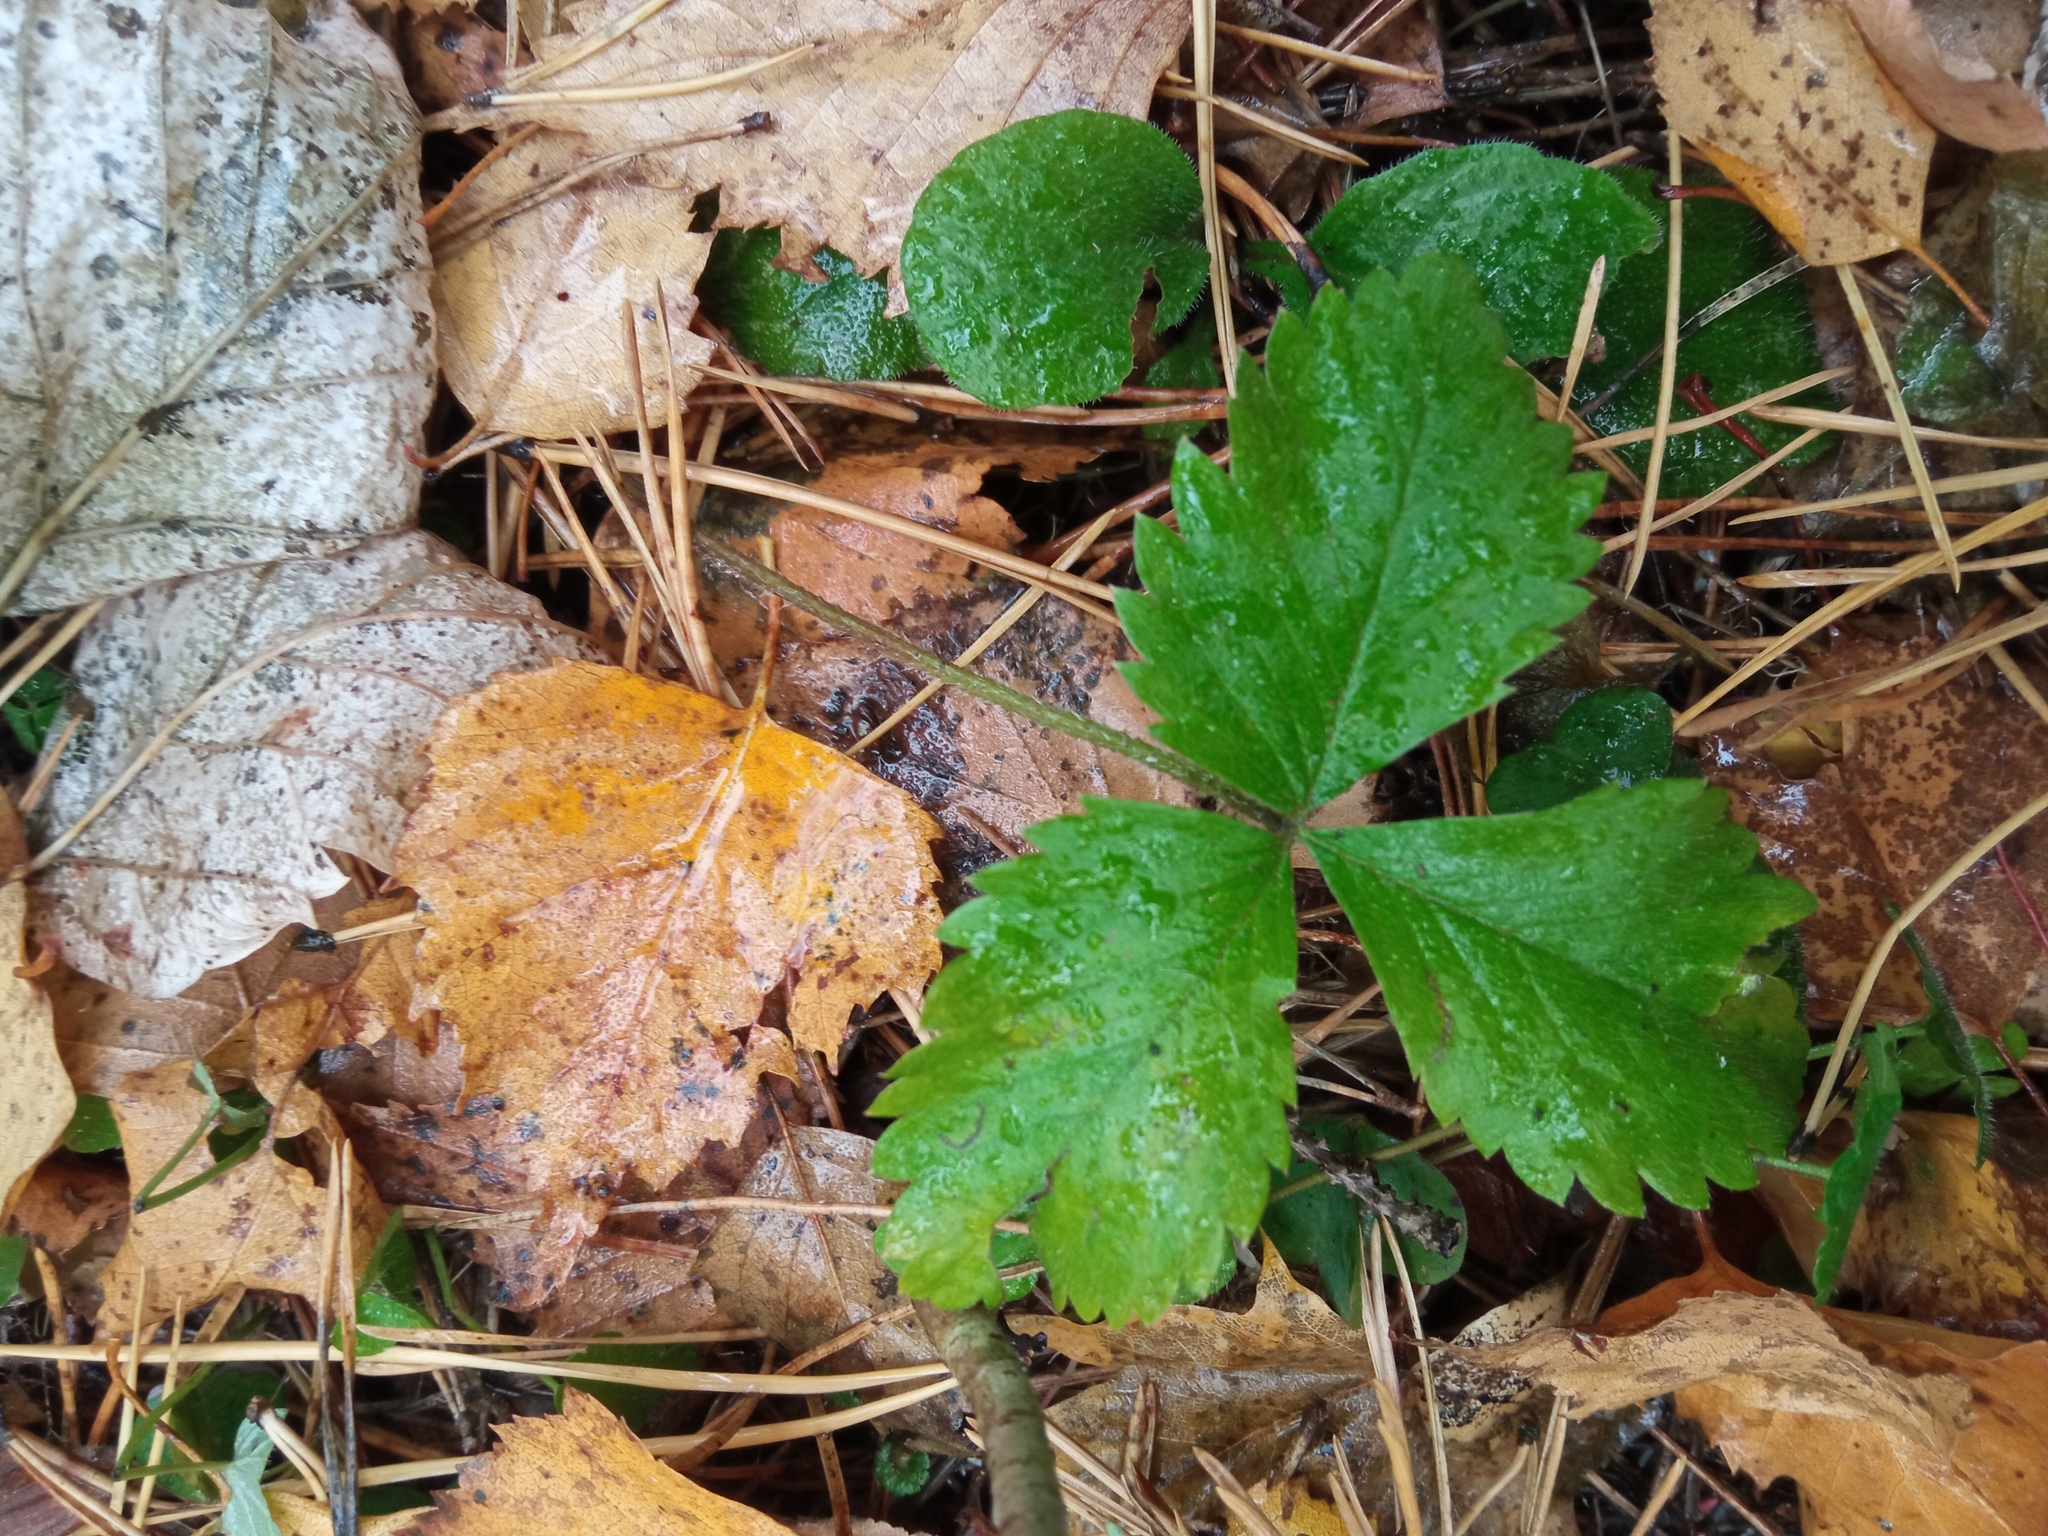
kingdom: Plantae
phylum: Tracheophyta
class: Magnoliopsida
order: Rosales
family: Rosaceae
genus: Fragaria
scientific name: Fragaria vesca
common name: Wild strawberry
